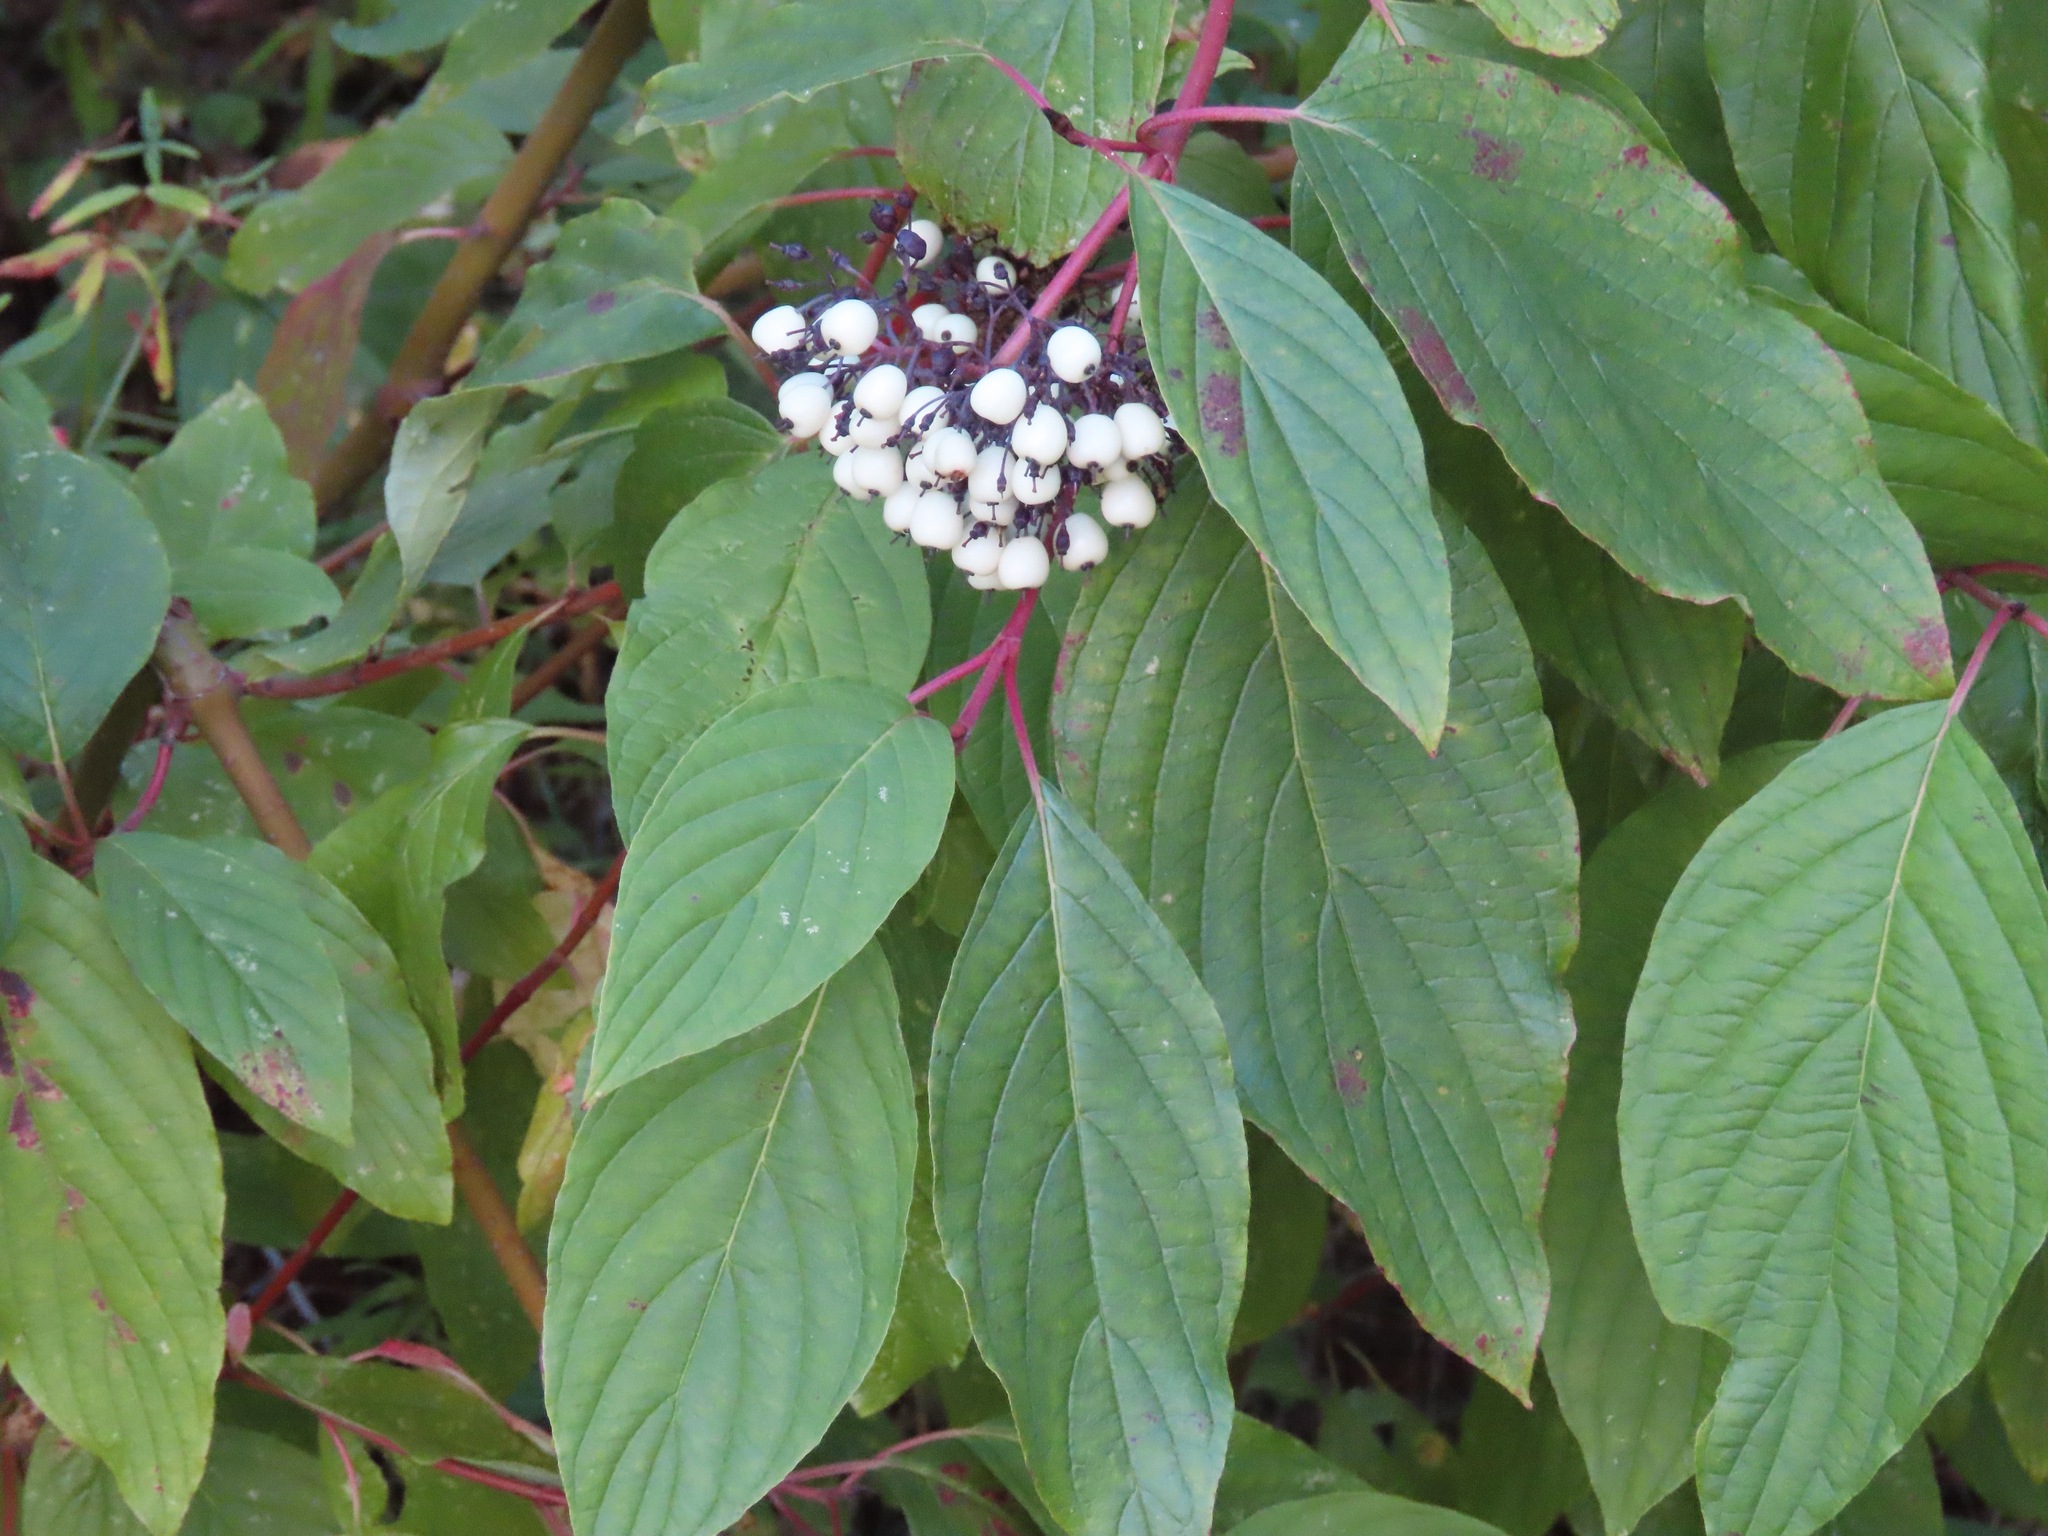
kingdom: Plantae
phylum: Tracheophyta
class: Magnoliopsida
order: Cornales
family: Cornaceae
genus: Cornus
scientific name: Cornus sericea
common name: Red-osier dogwood
